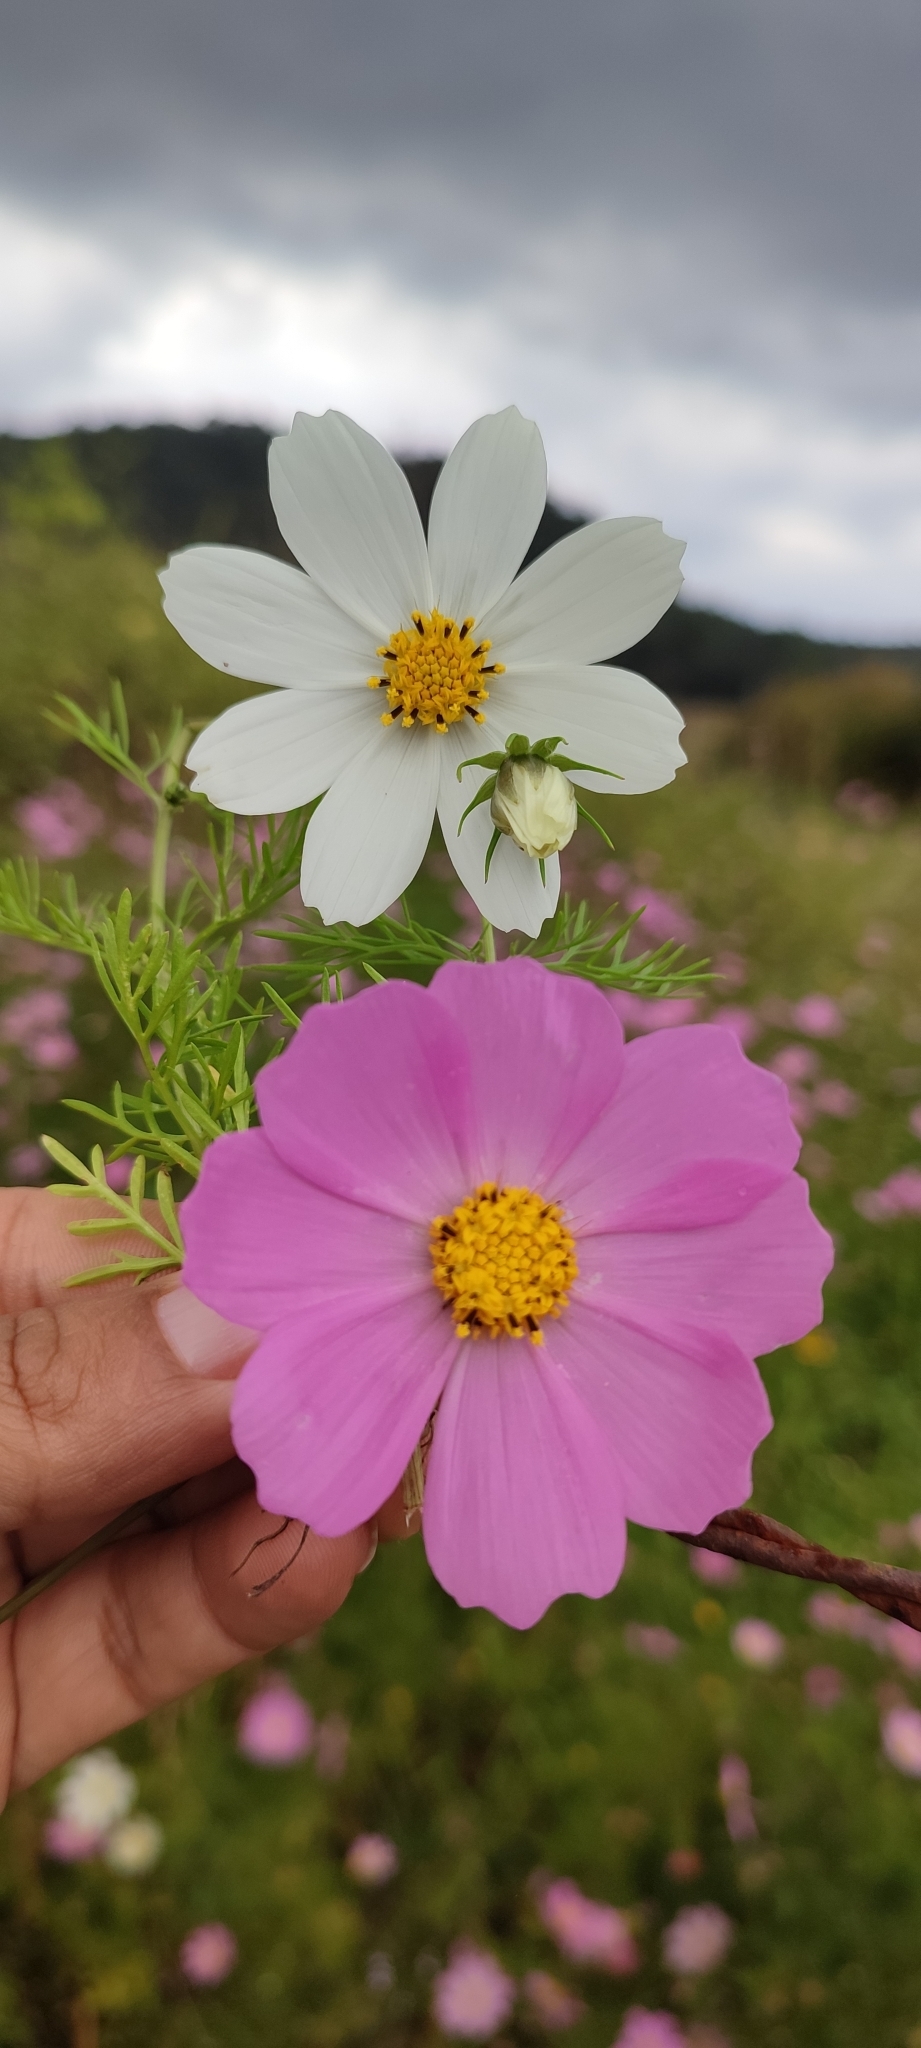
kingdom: Plantae
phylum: Tracheophyta
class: Magnoliopsida
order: Asterales
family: Asteraceae
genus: Cosmos
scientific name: Cosmos bipinnatus
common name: Garden cosmos
